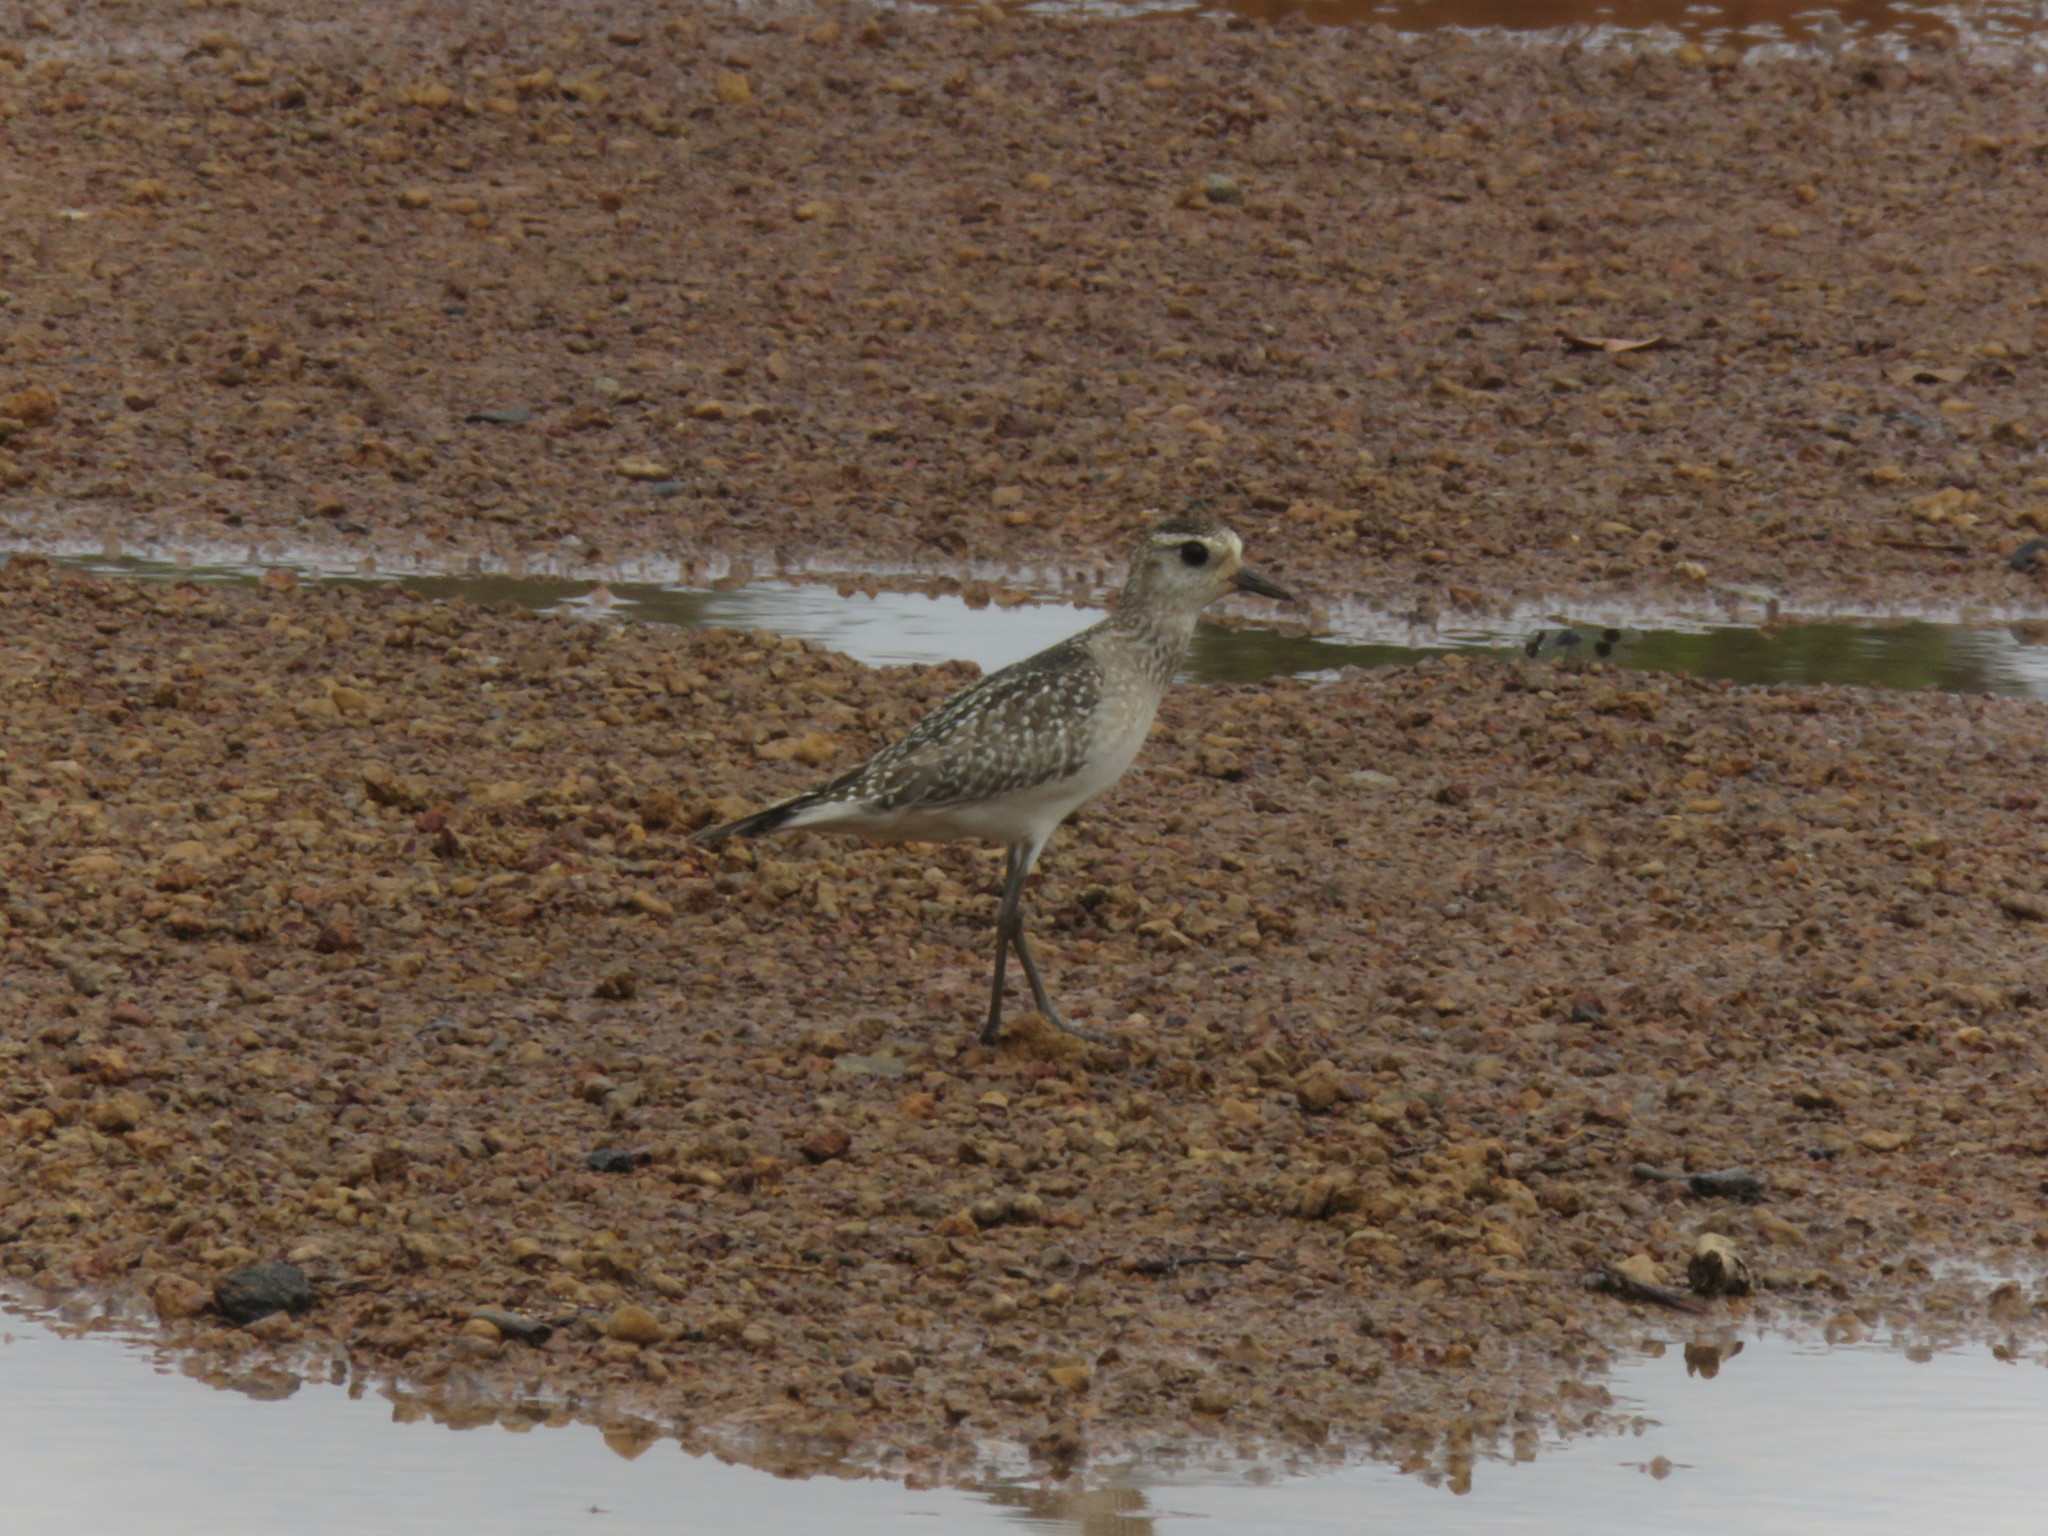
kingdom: Animalia
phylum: Chordata
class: Aves
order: Charadriiformes
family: Charadriidae
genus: Pluvialis
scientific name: Pluvialis dominica
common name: American golden plover
